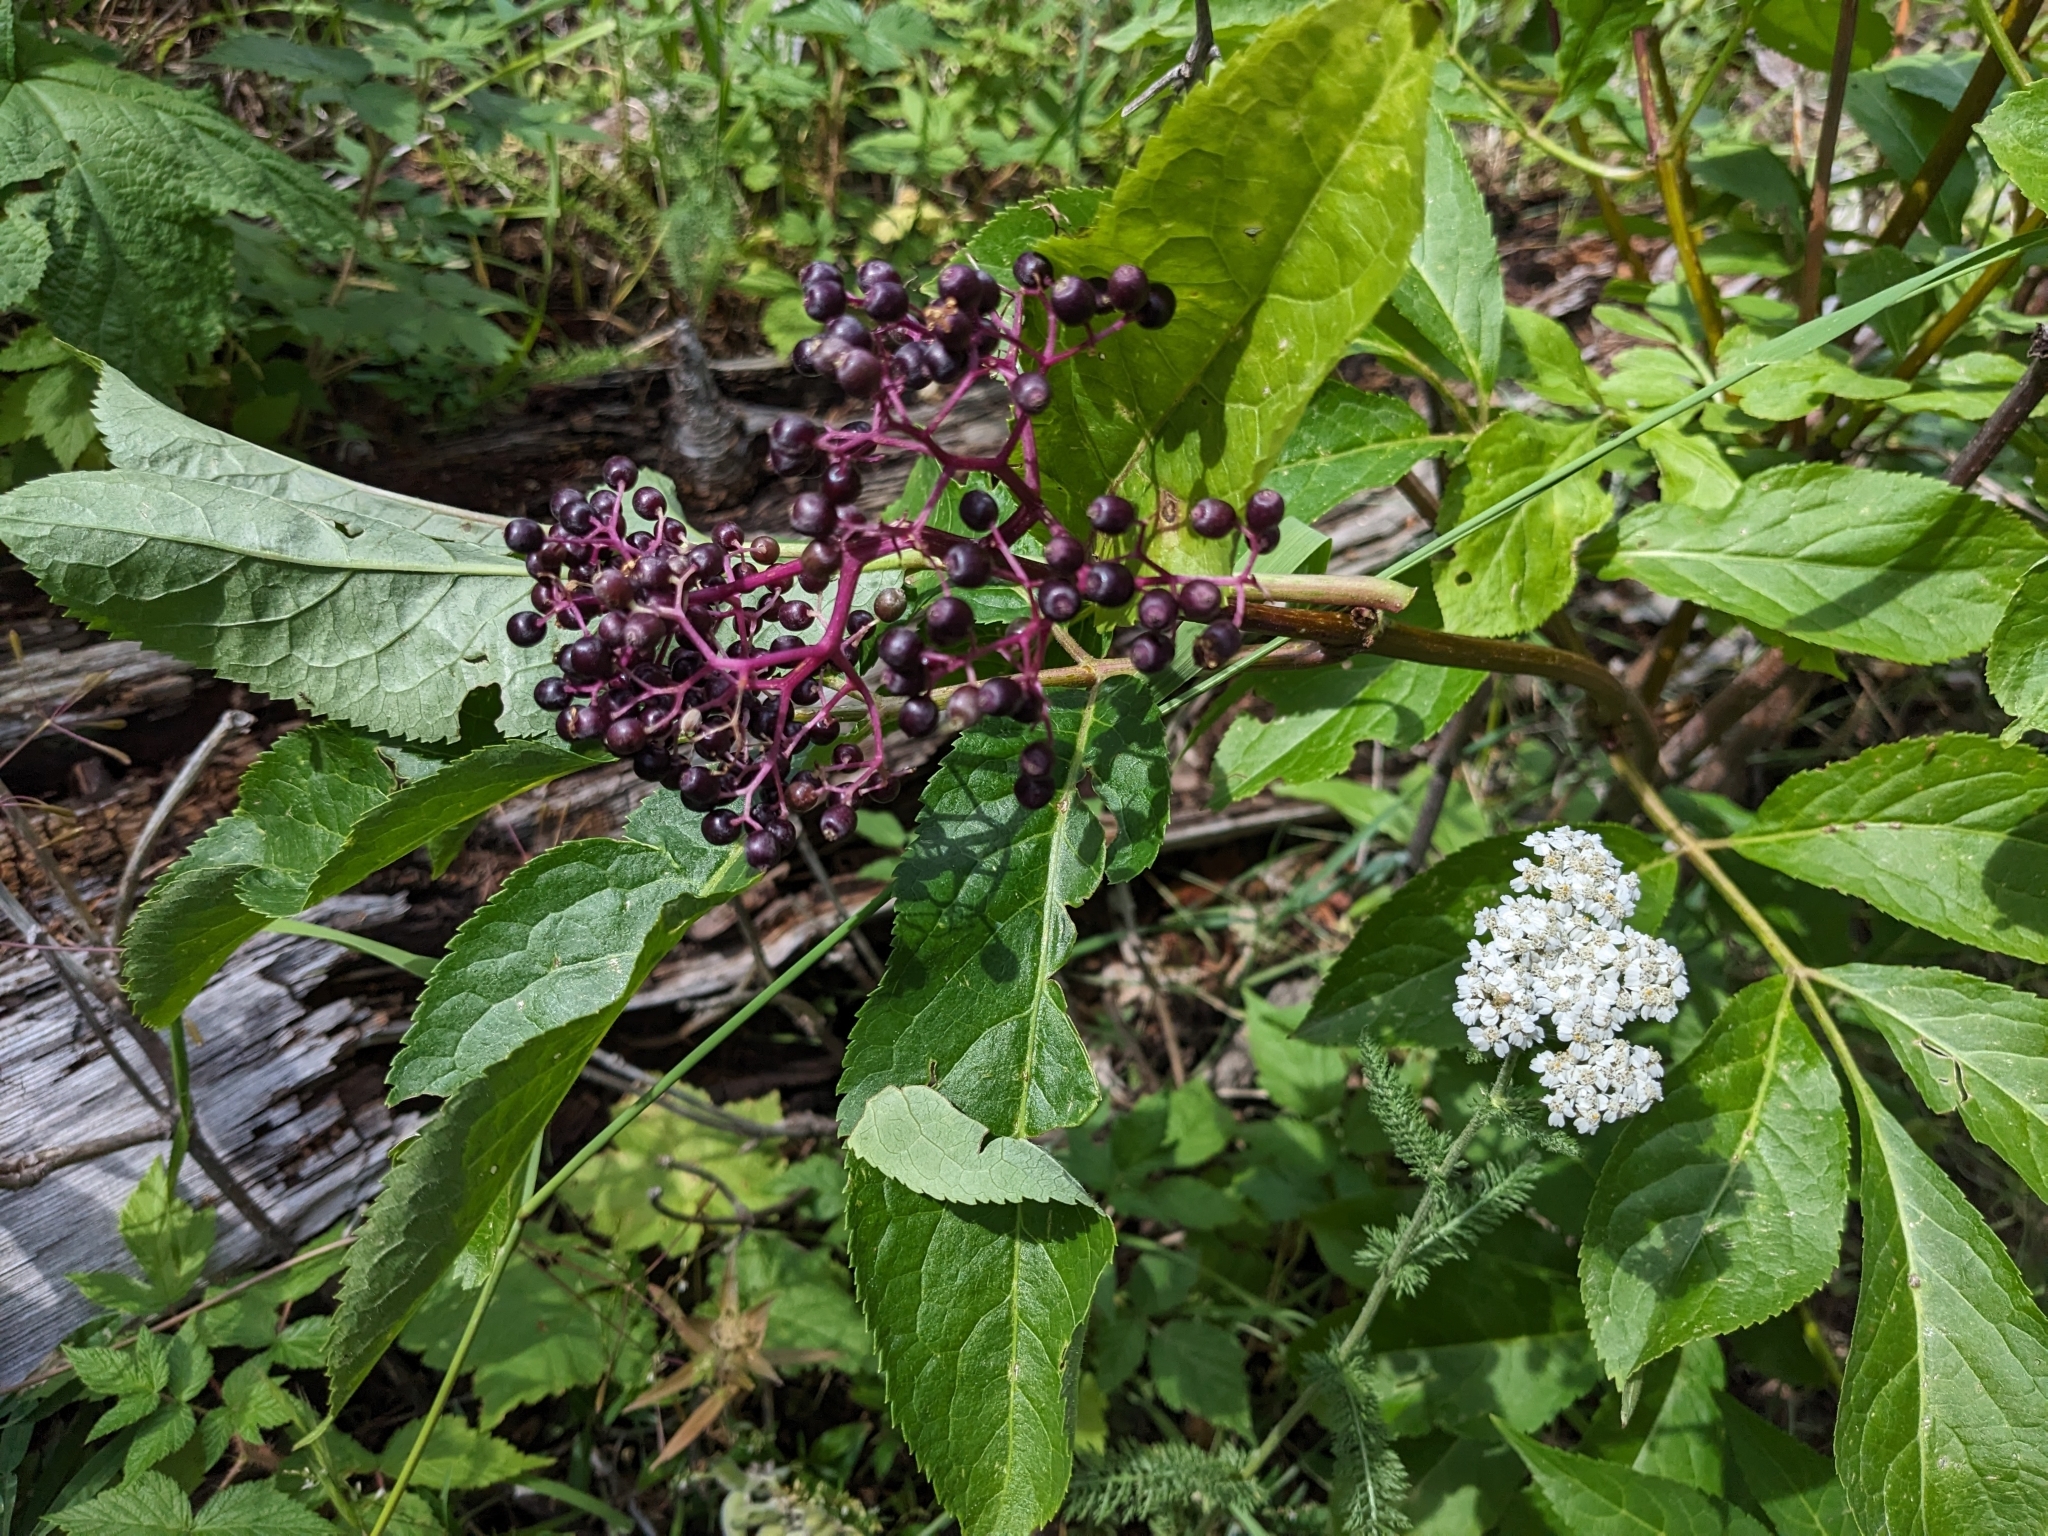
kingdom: Plantae
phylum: Tracheophyta
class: Magnoliopsida
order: Dipsacales
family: Viburnaceae
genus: Sambucus
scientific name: Sambucus racemosa
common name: Red-berried elder
